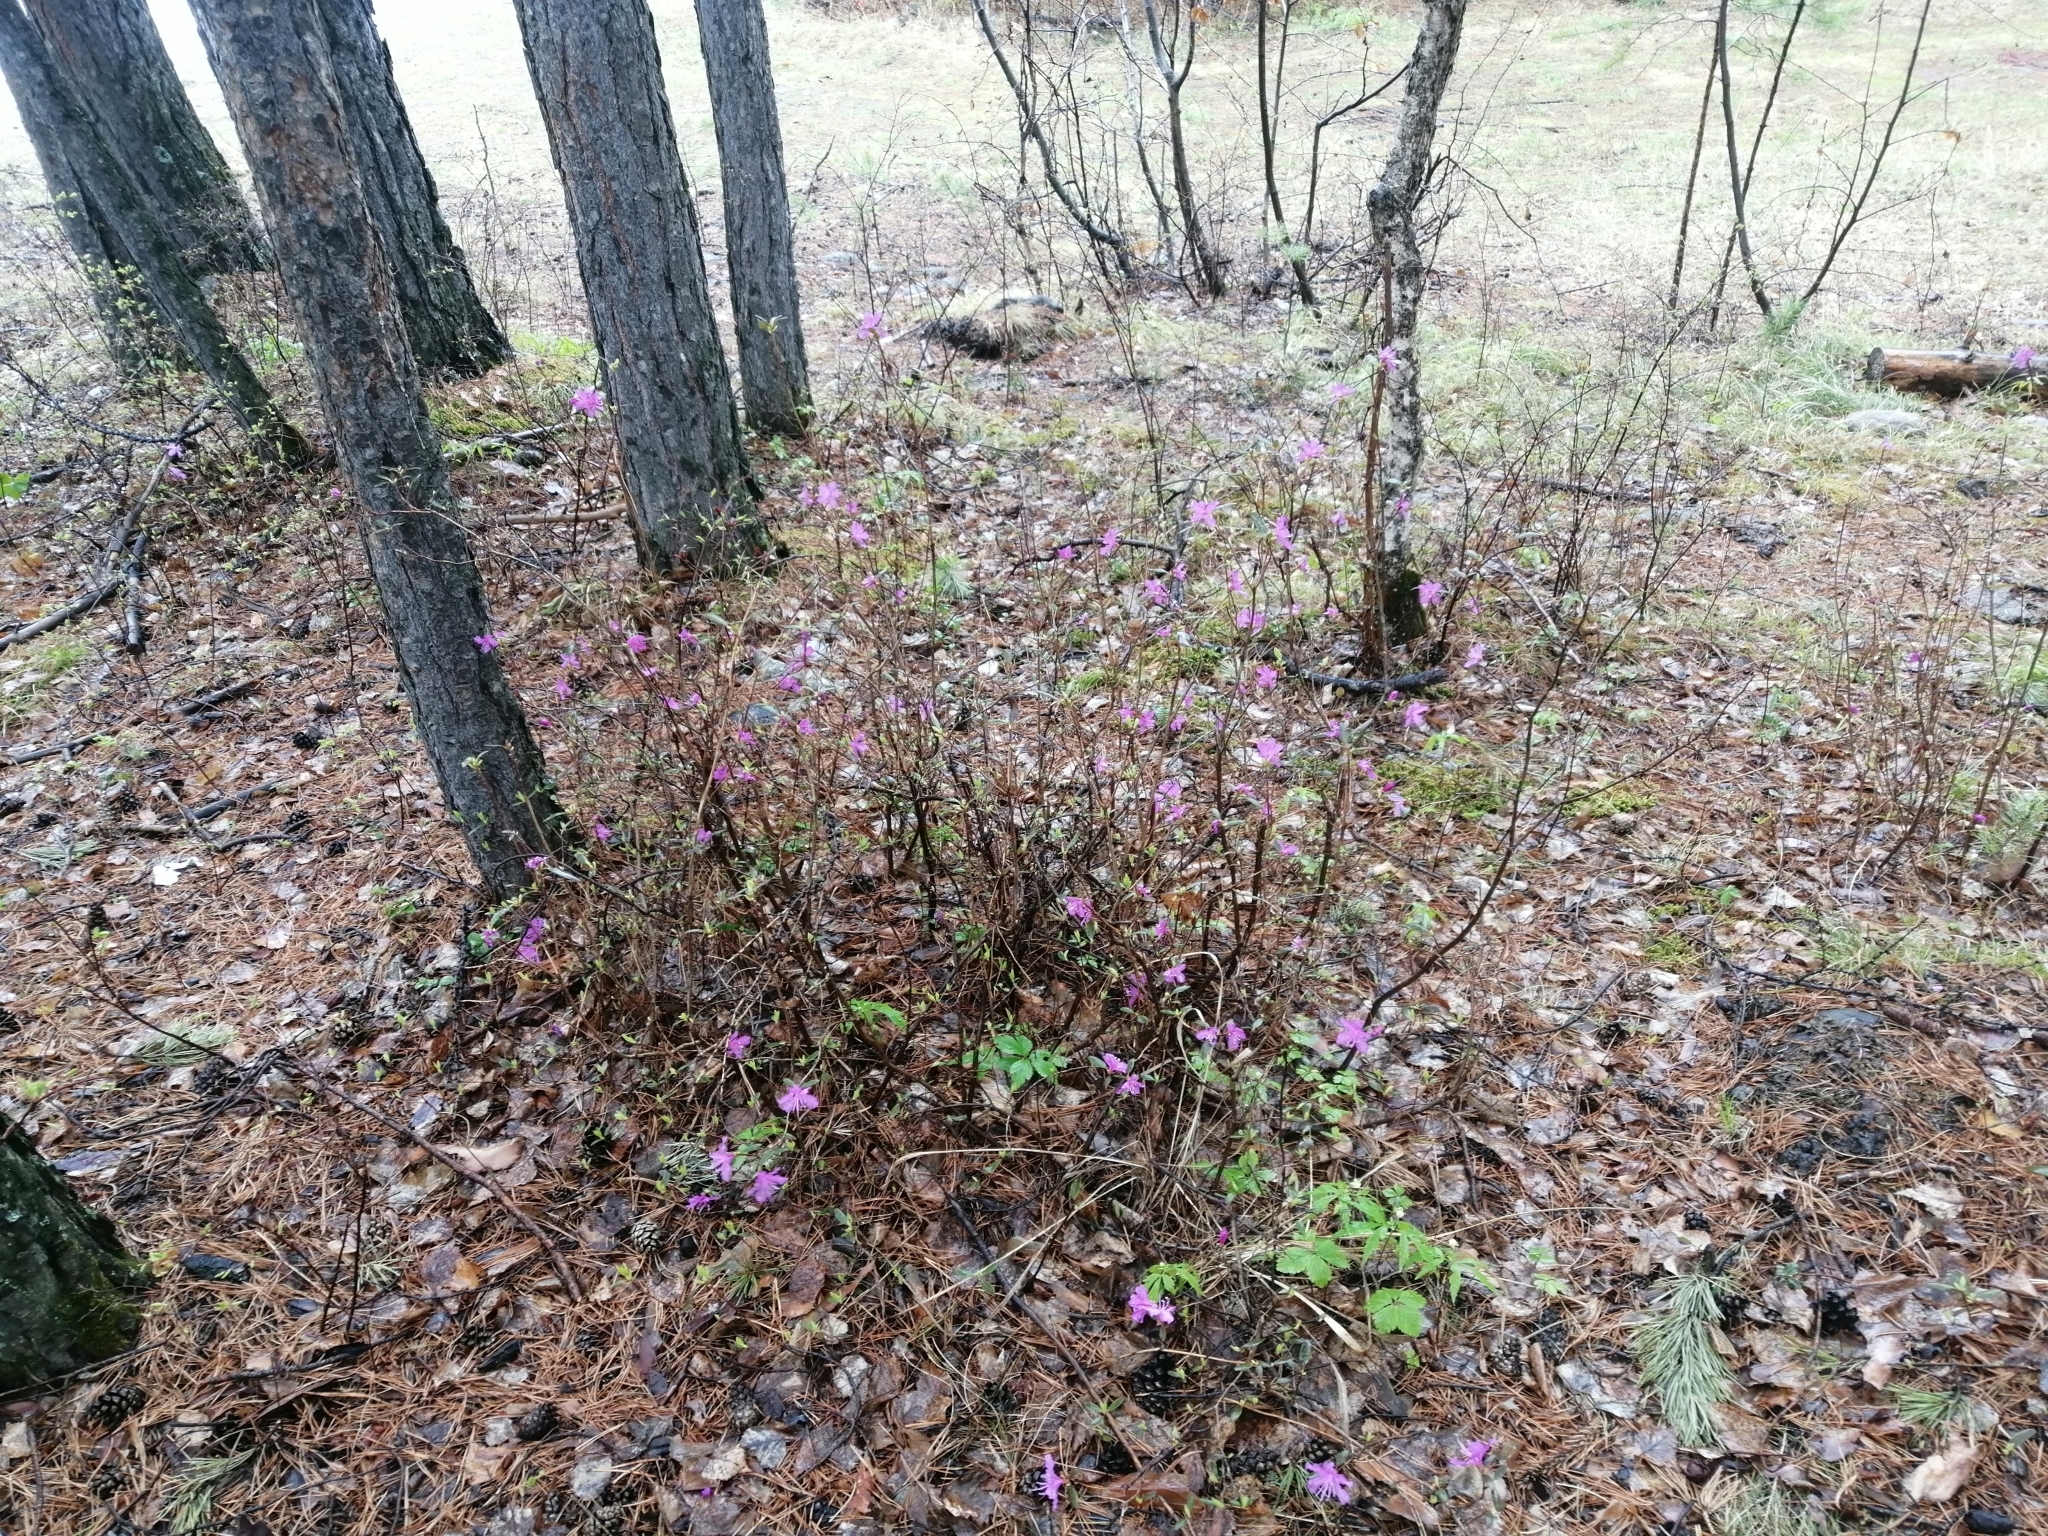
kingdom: Plantae
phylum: Tracheophyta
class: Magnoliopsida
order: Ericales
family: Ericaceae
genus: Rhododendron
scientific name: Rhododendron dauricum
